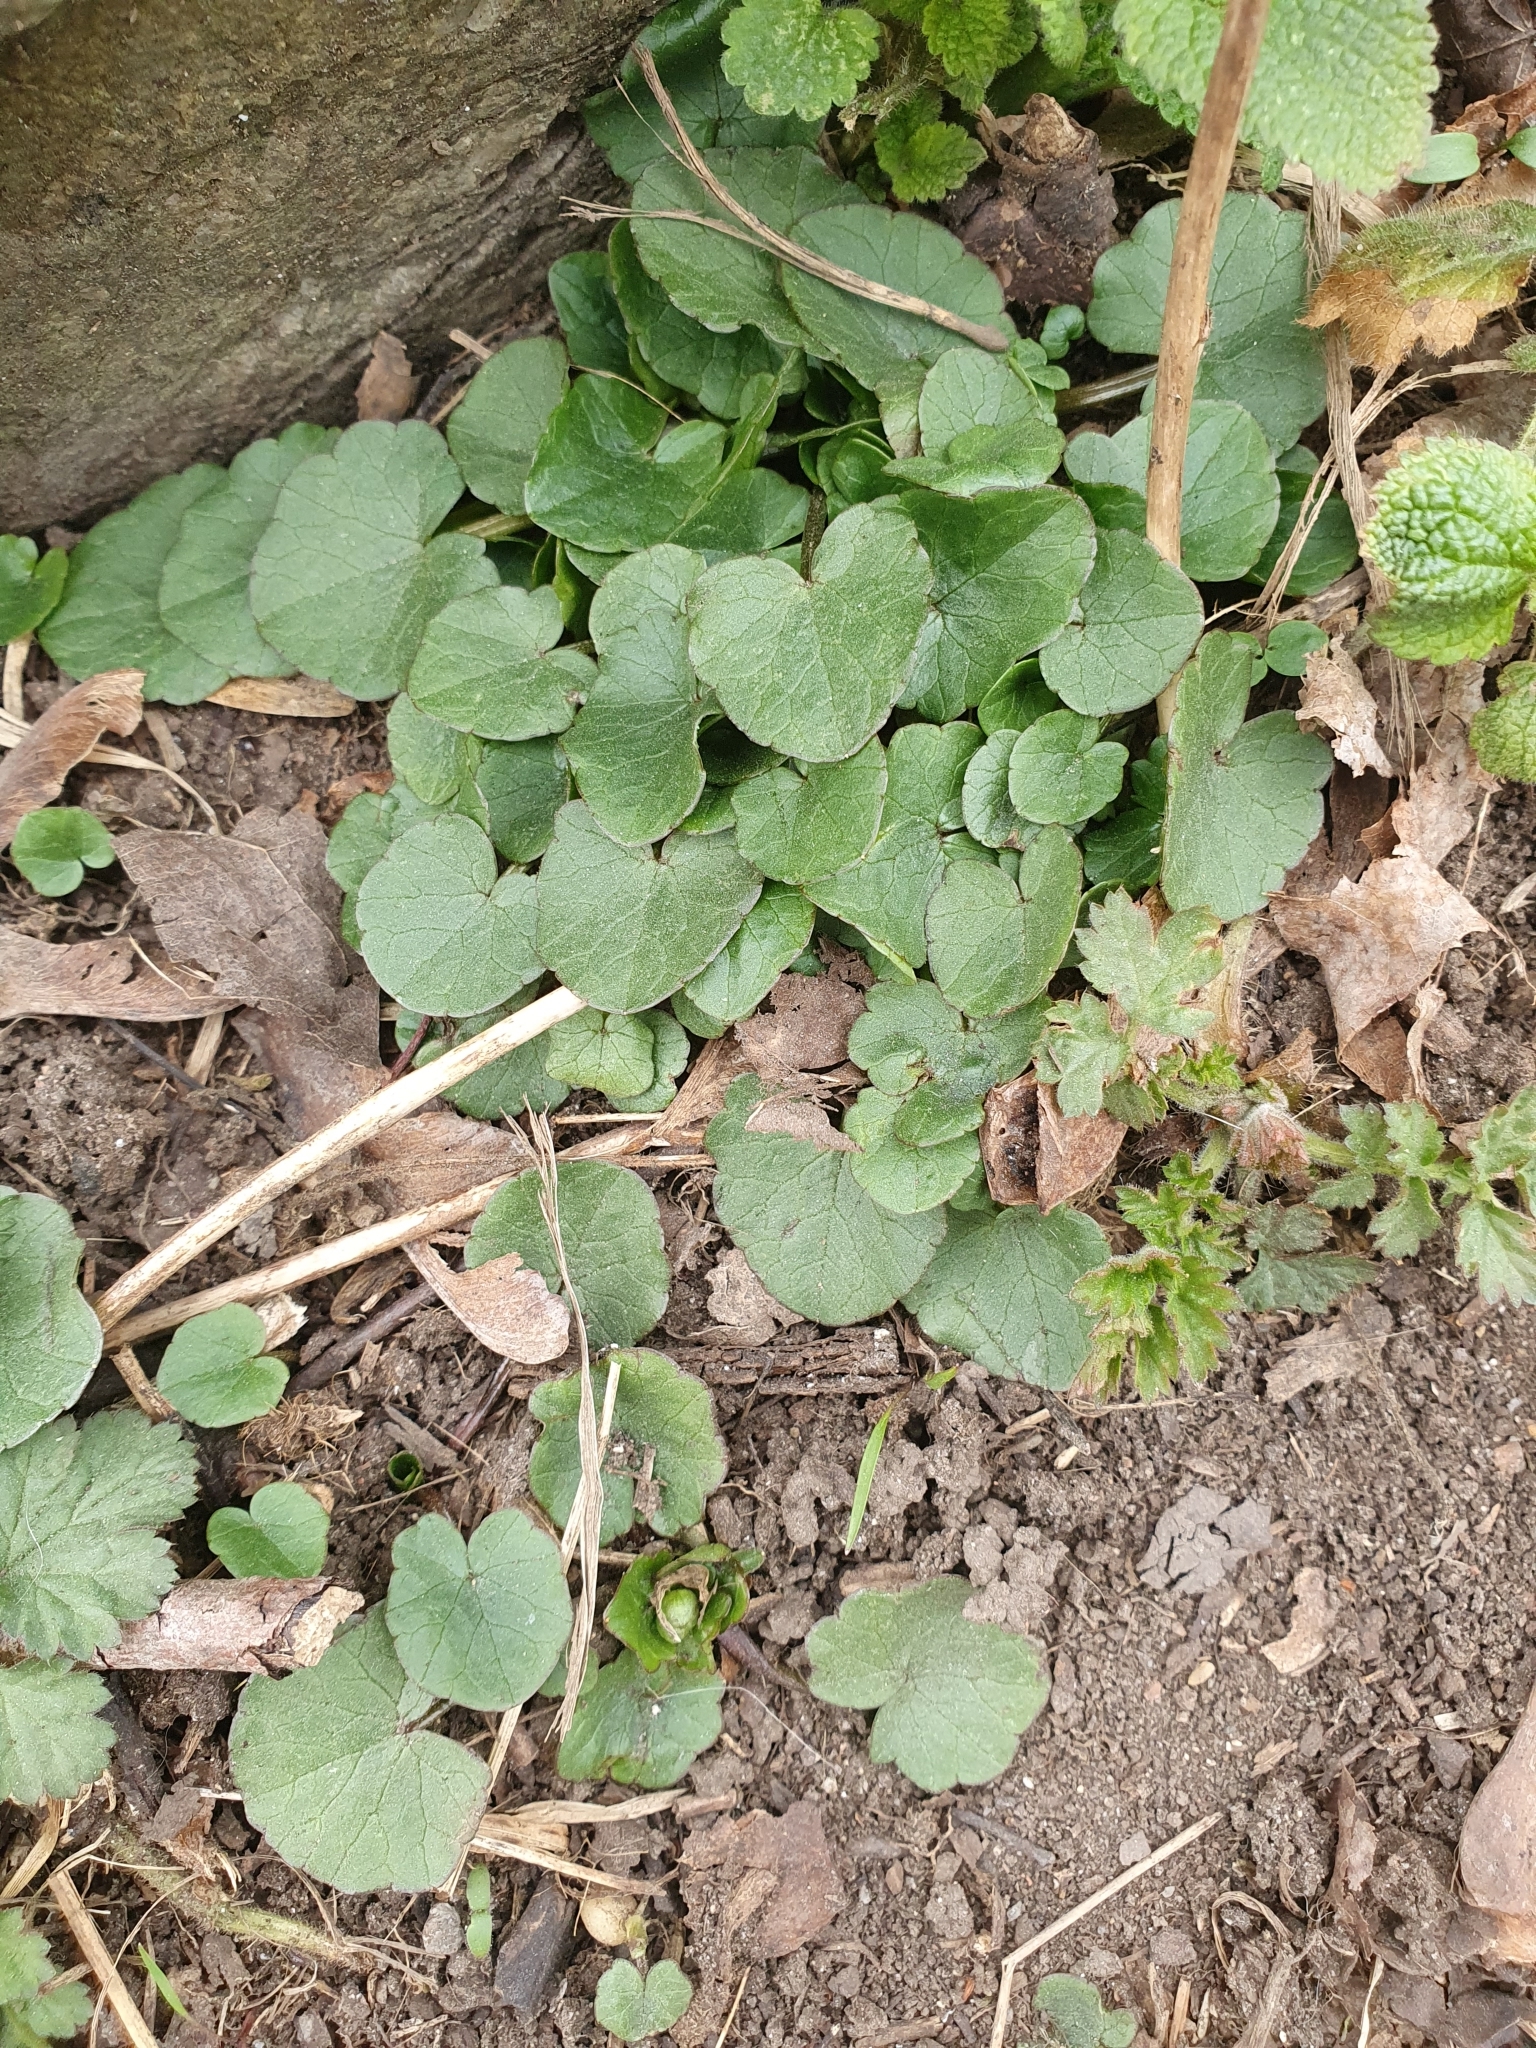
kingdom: Plantae
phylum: Tracheophyta
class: Magnoliopsida
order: Ranunculales
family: Ranunculaceae
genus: Ficaria
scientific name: Ficaria verna
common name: Lesser celandine
